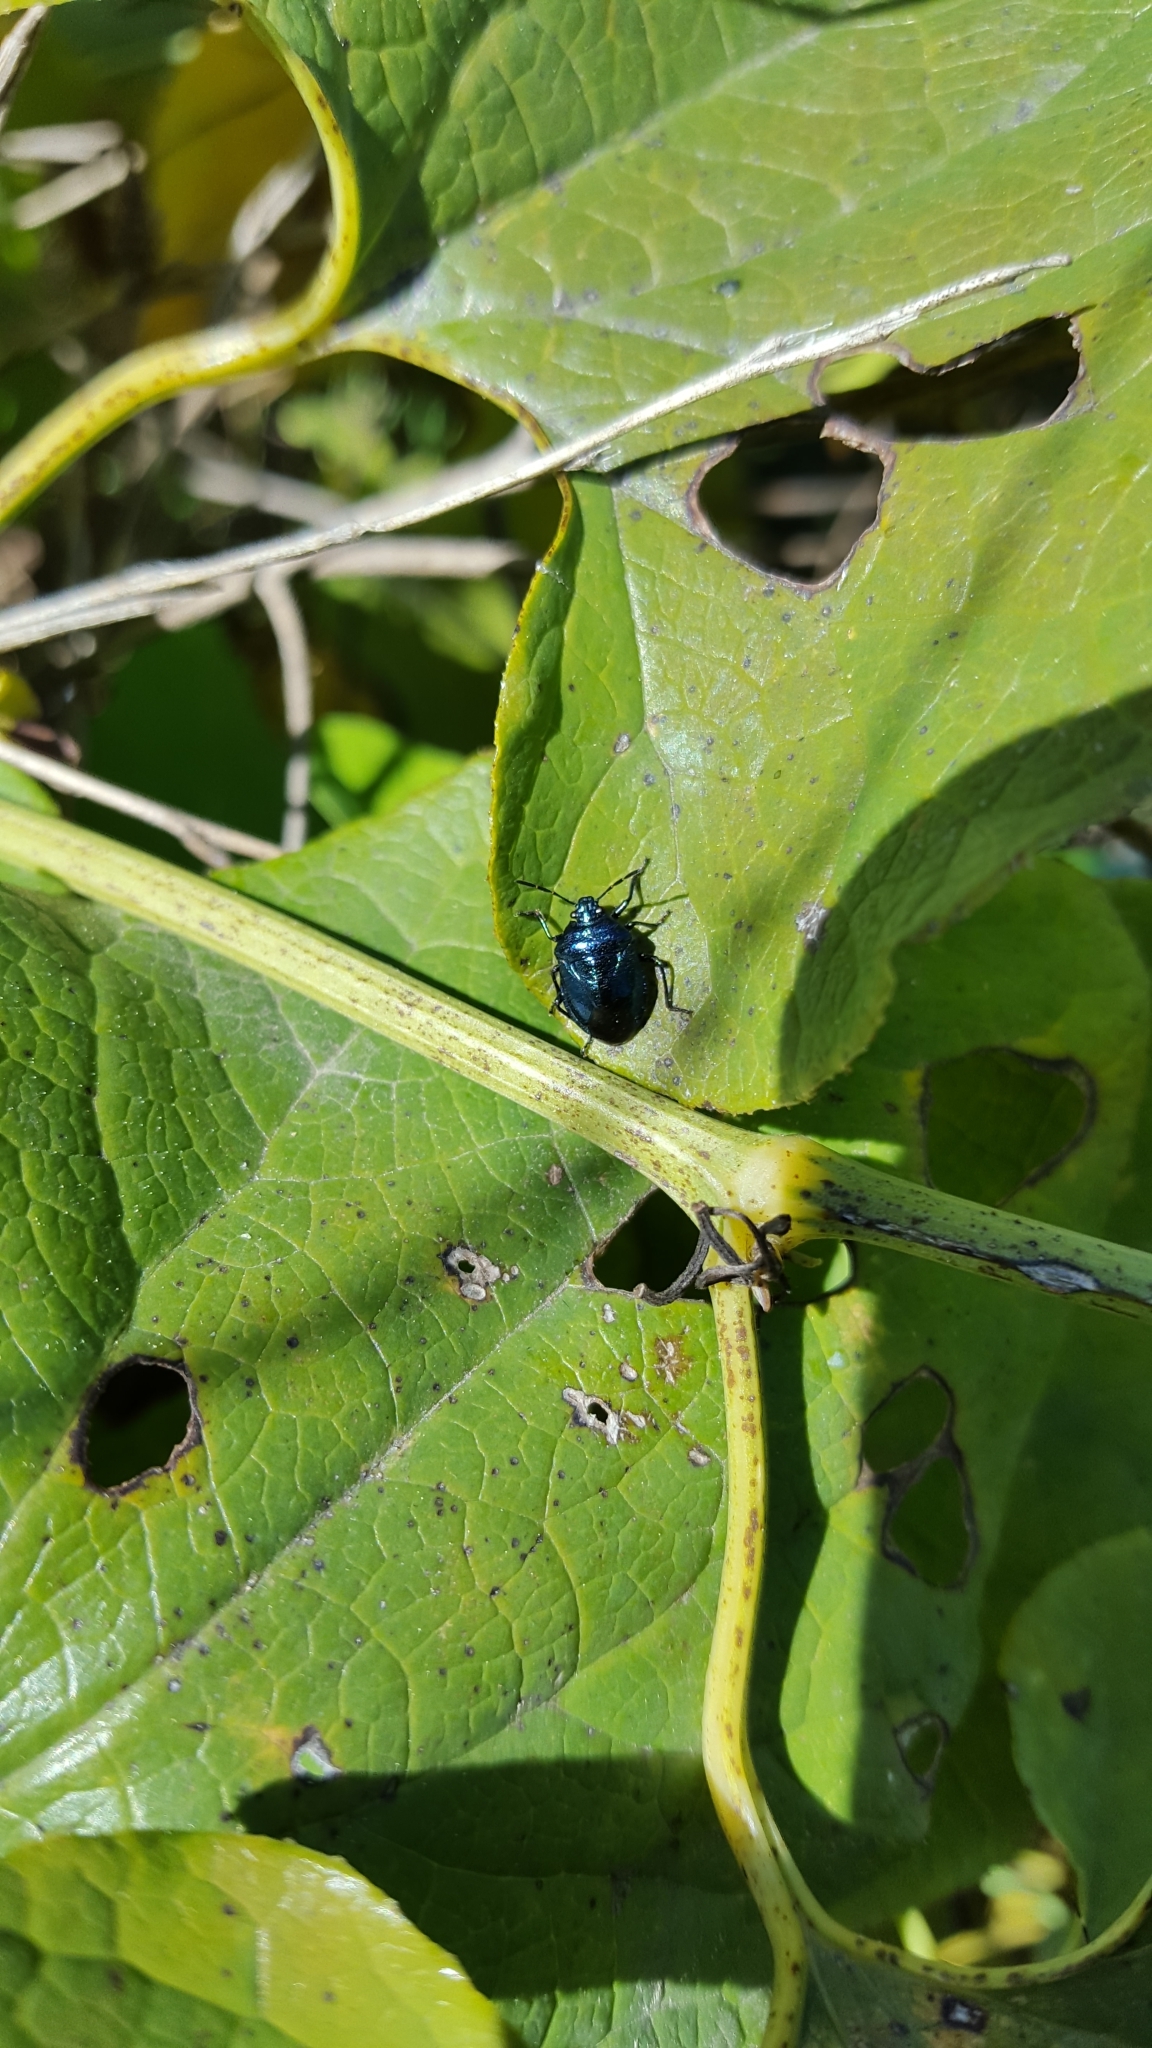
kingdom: Animalia
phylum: Arthropoda
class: Insecta
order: Hemiptera
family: Pentatomidae
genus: Zicrona
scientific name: Zicrona caerulea
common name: Blue shieldbug
